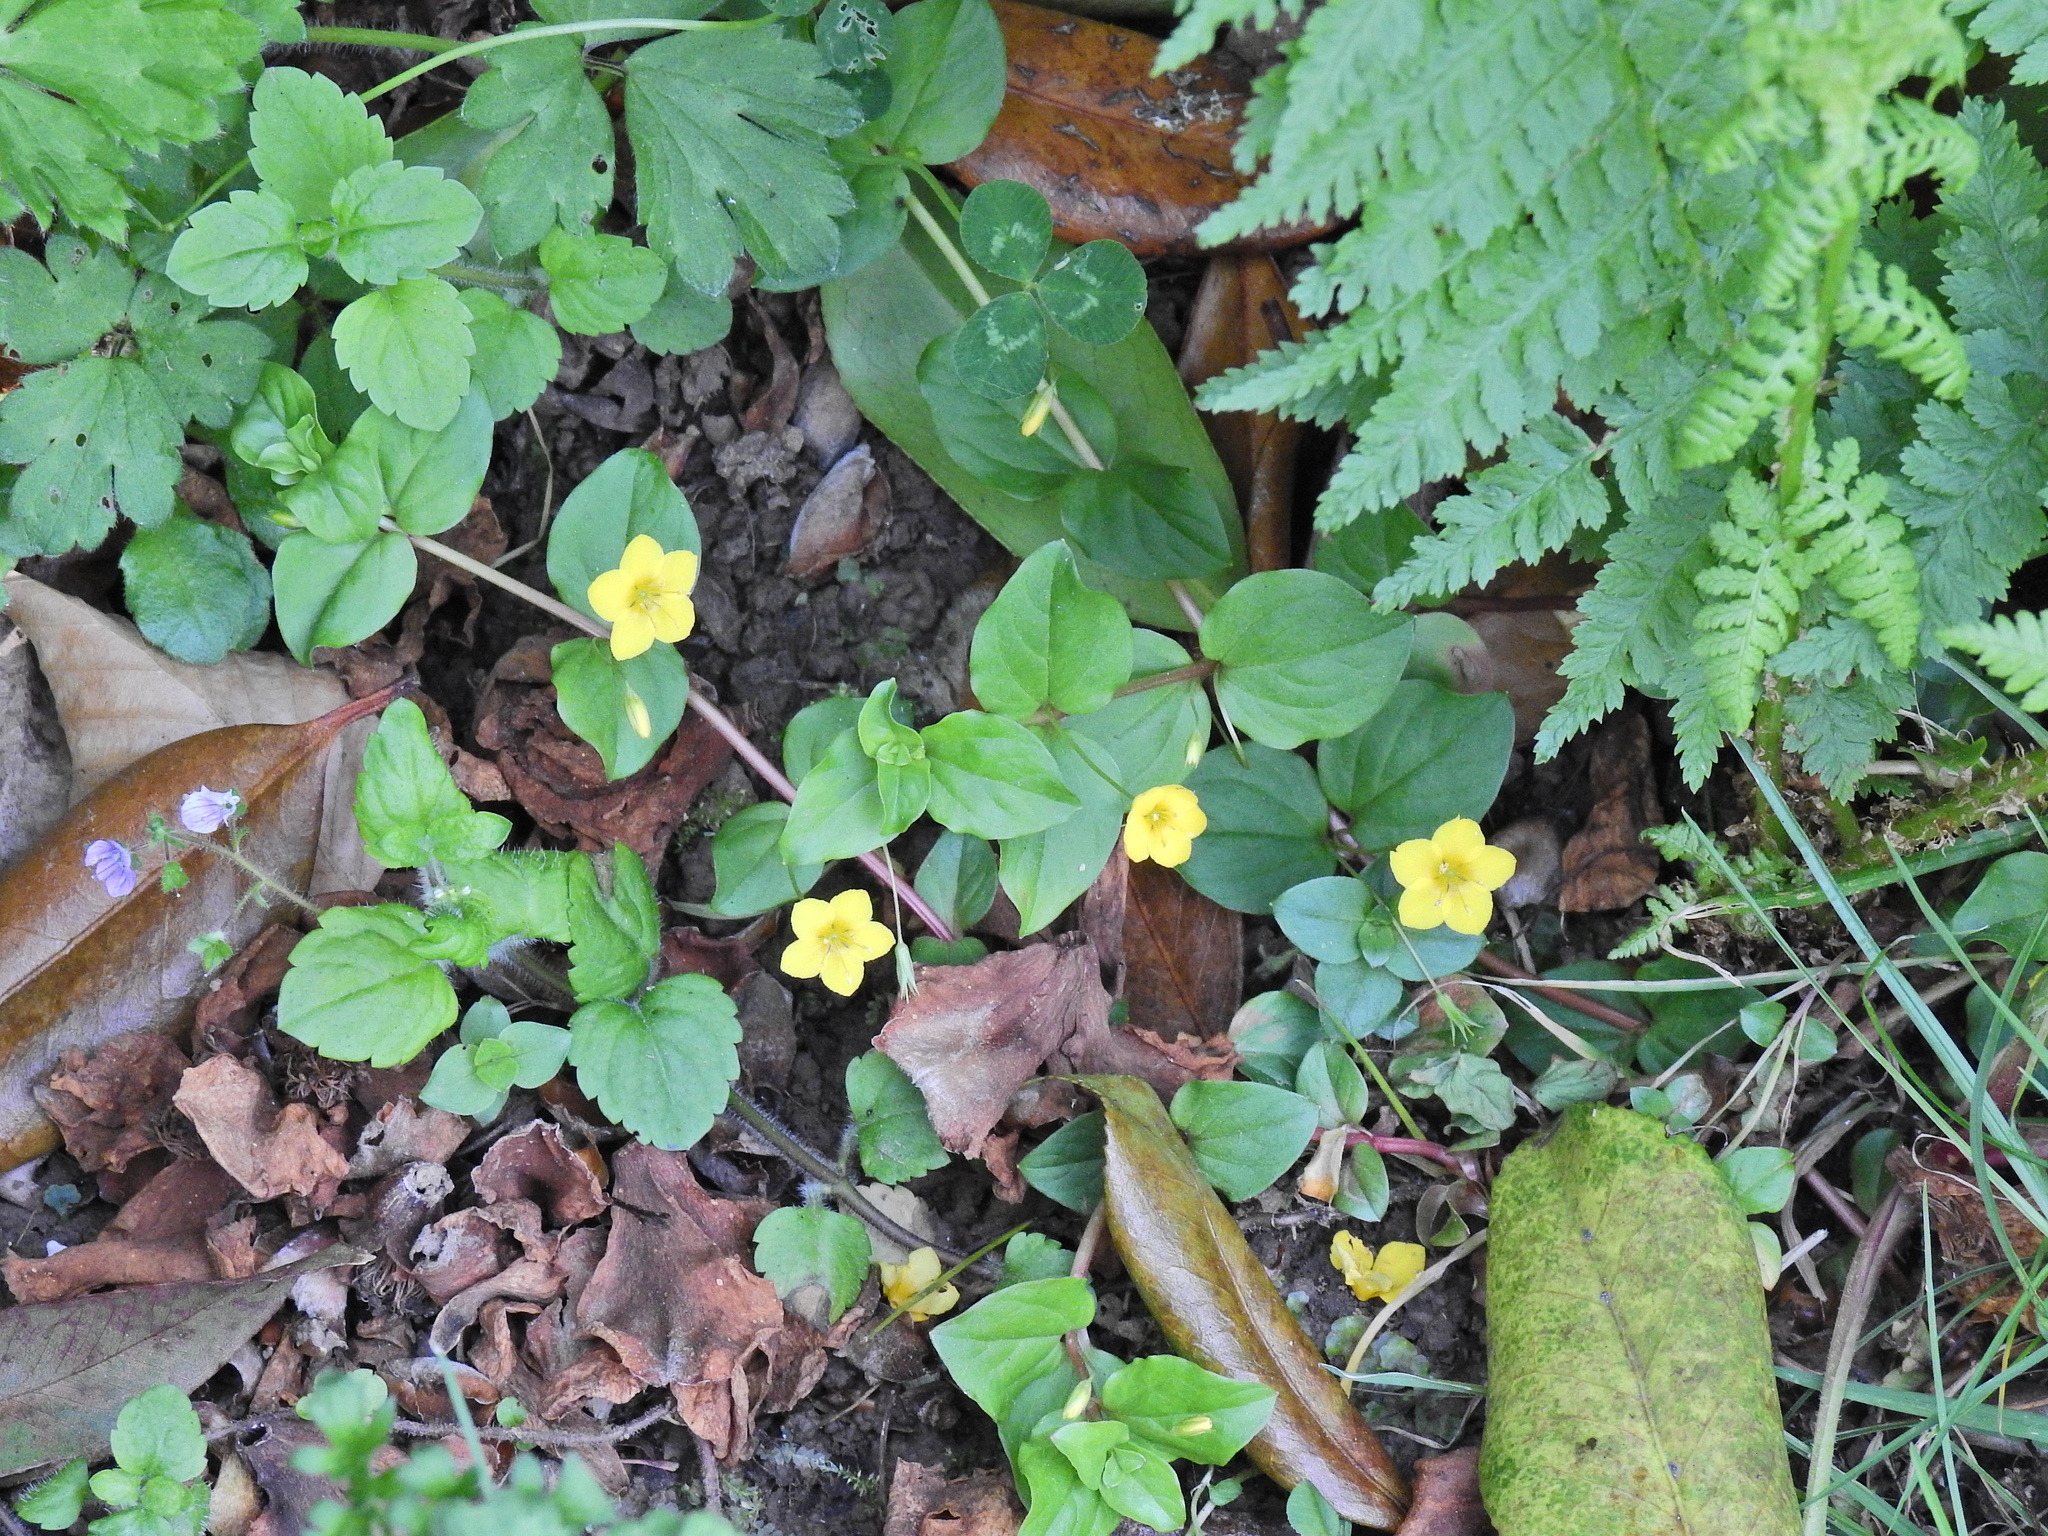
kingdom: Plantae
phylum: Tracheophyta
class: Magnoliopsida
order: Ericales
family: Primulaceae
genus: Lysimachia
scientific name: Lysimachia nemorum
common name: Yellow pimpernel
